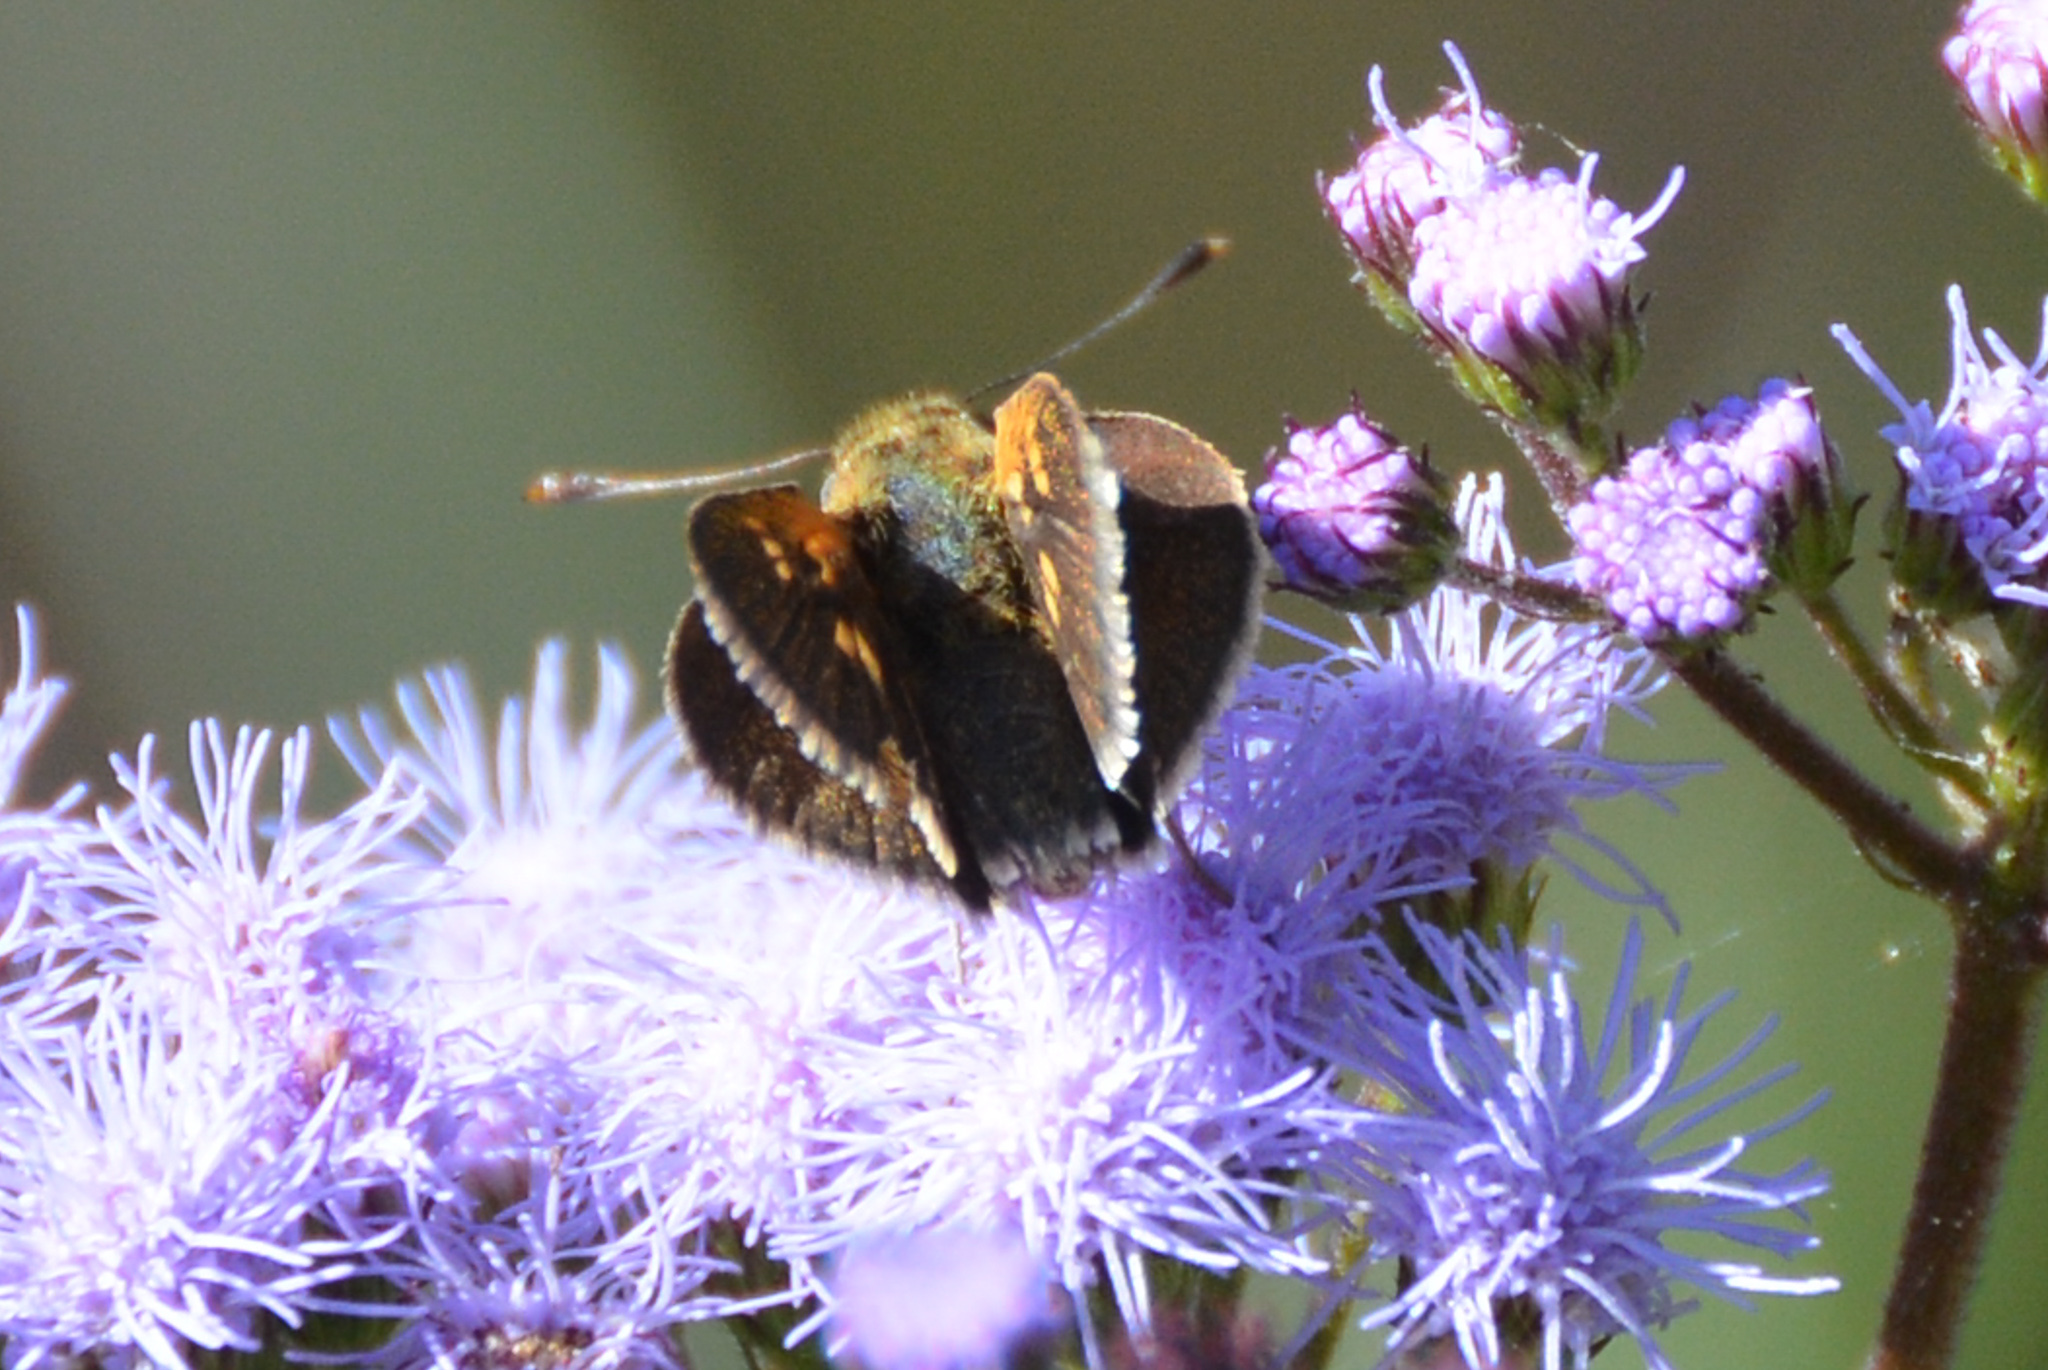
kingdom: Animalia
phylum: Arthropoda
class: Insecta
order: Lepidoptera
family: Hesperiidae
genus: Polites
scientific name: Polites themistocles
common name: Tawny-edged skipper
